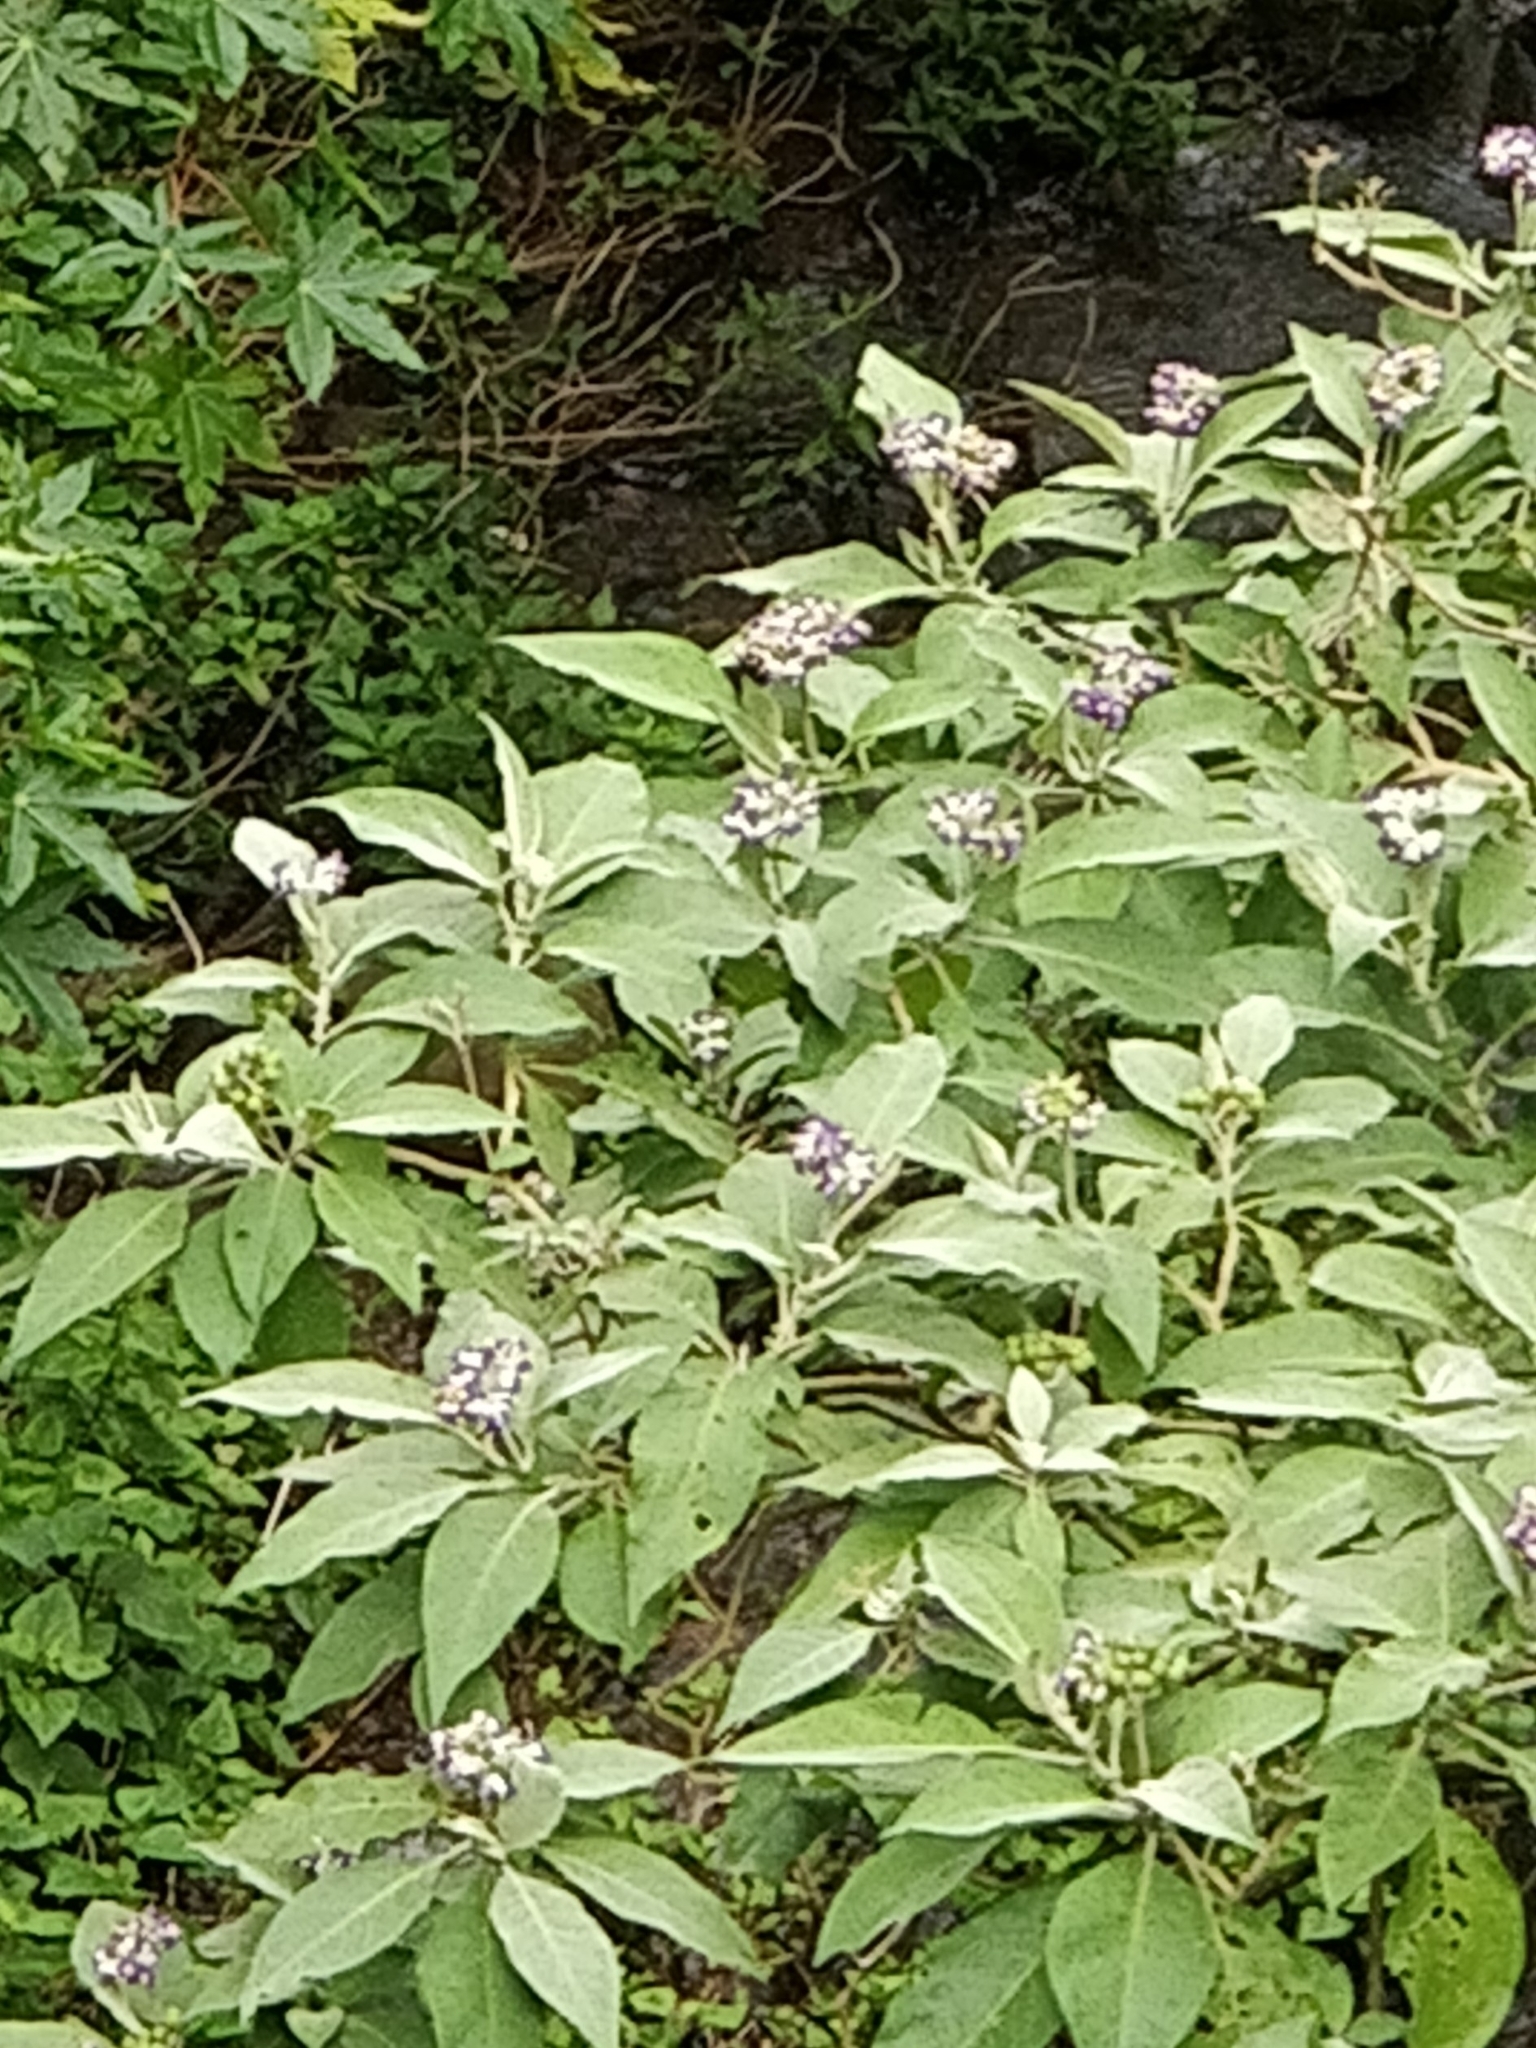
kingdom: Plantae
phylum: Tracheophyta
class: Magnoliopsida
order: Solanales
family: Solanaceae
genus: Solanum
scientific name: Solanum mauritianum
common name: Earleaf nightshade
